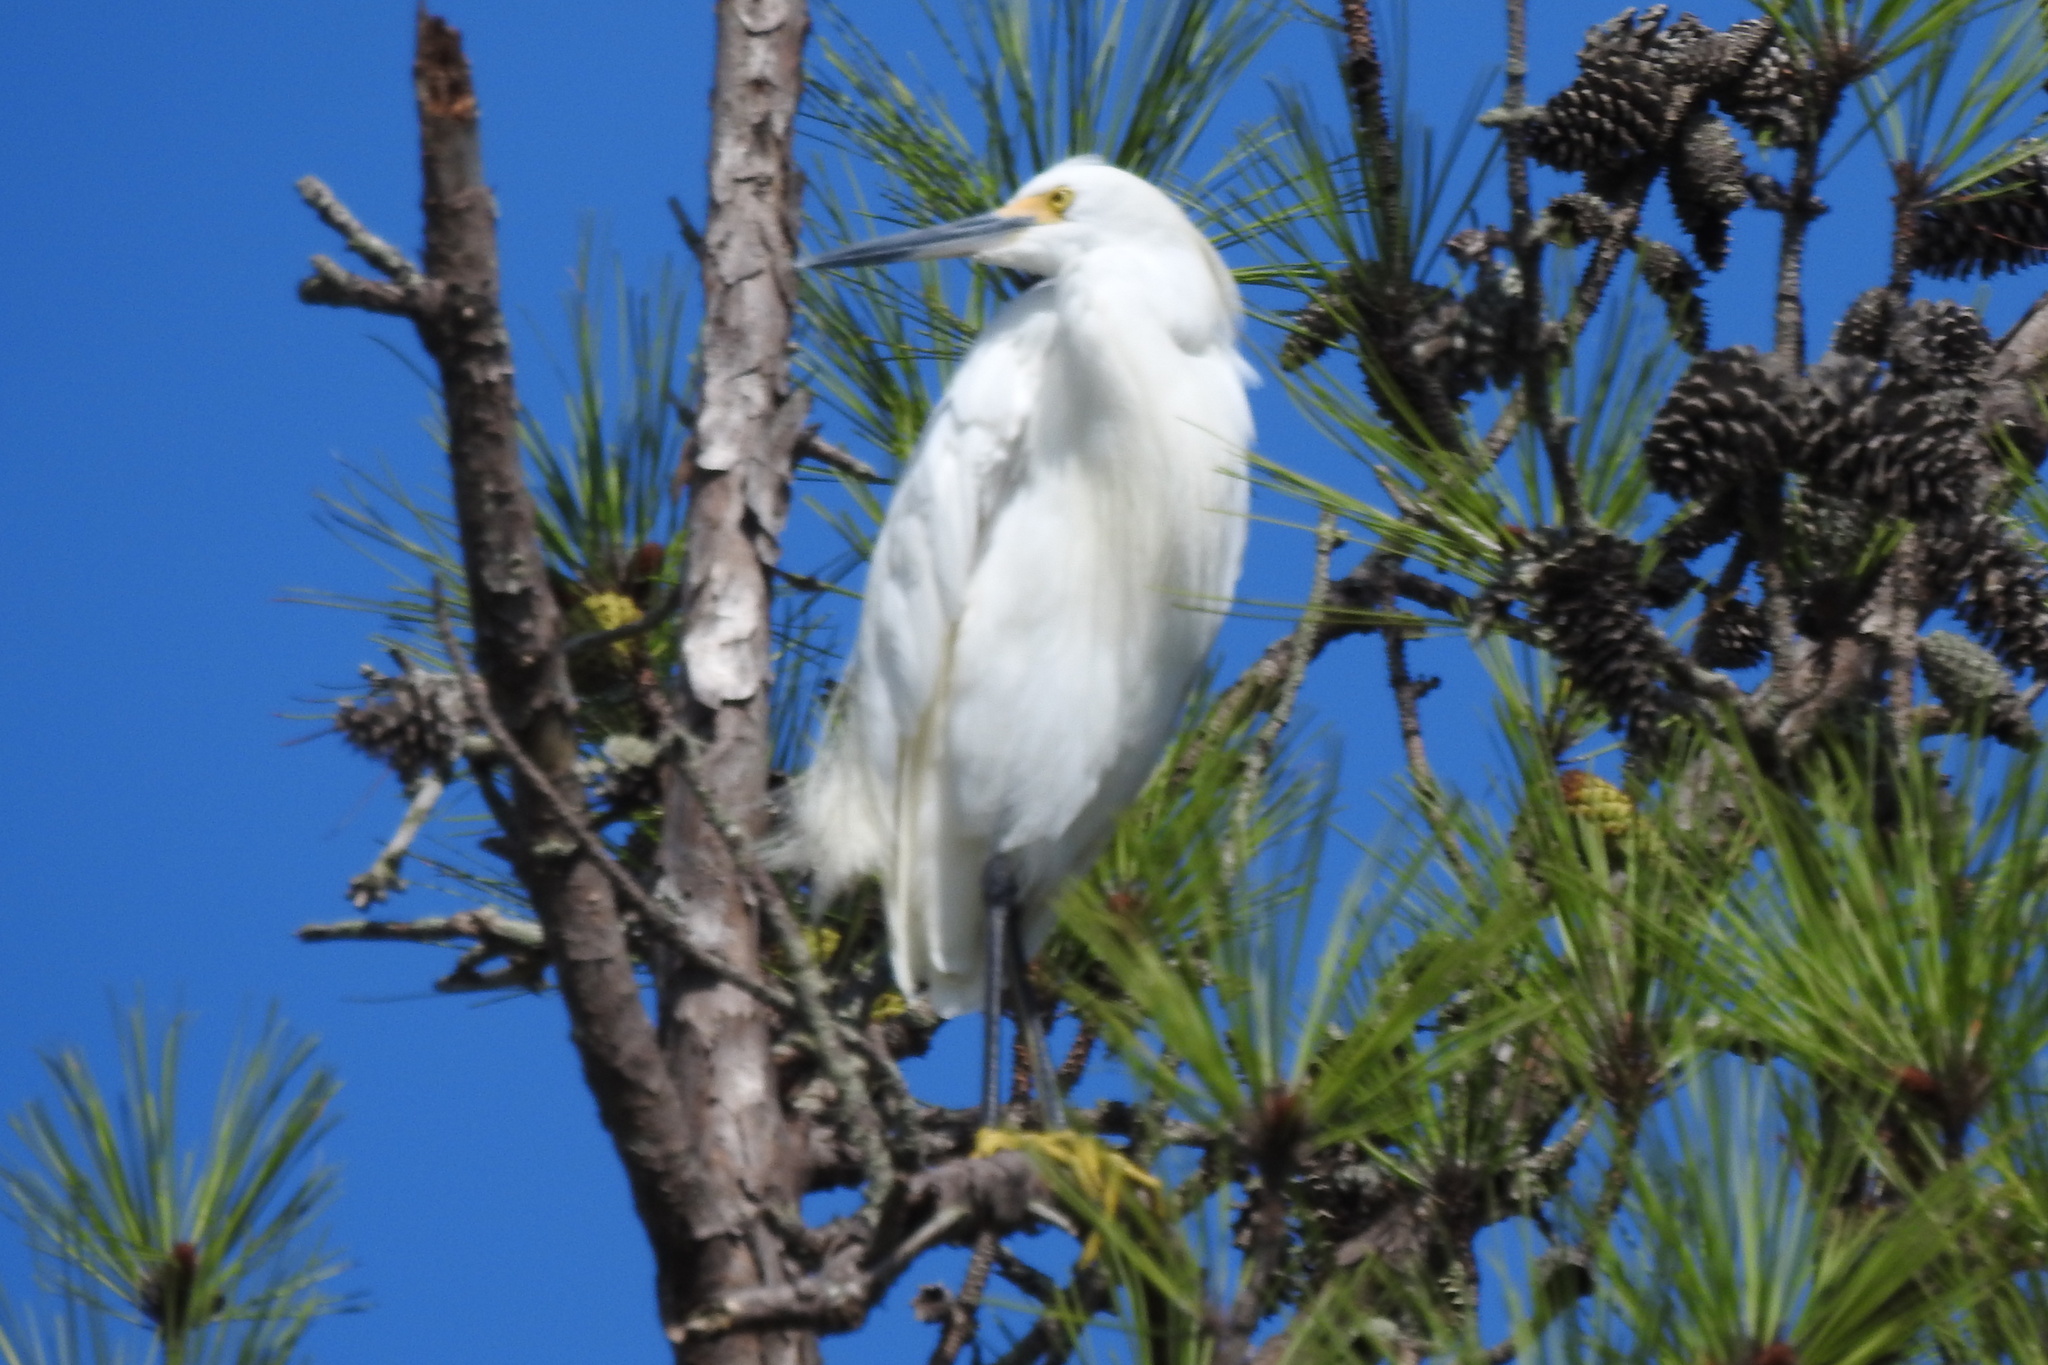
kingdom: Animalia
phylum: Chordata
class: Aves
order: Pelecaniformes
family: Ardeidae
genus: Egretta
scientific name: Egretta thula
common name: Snowy egret
